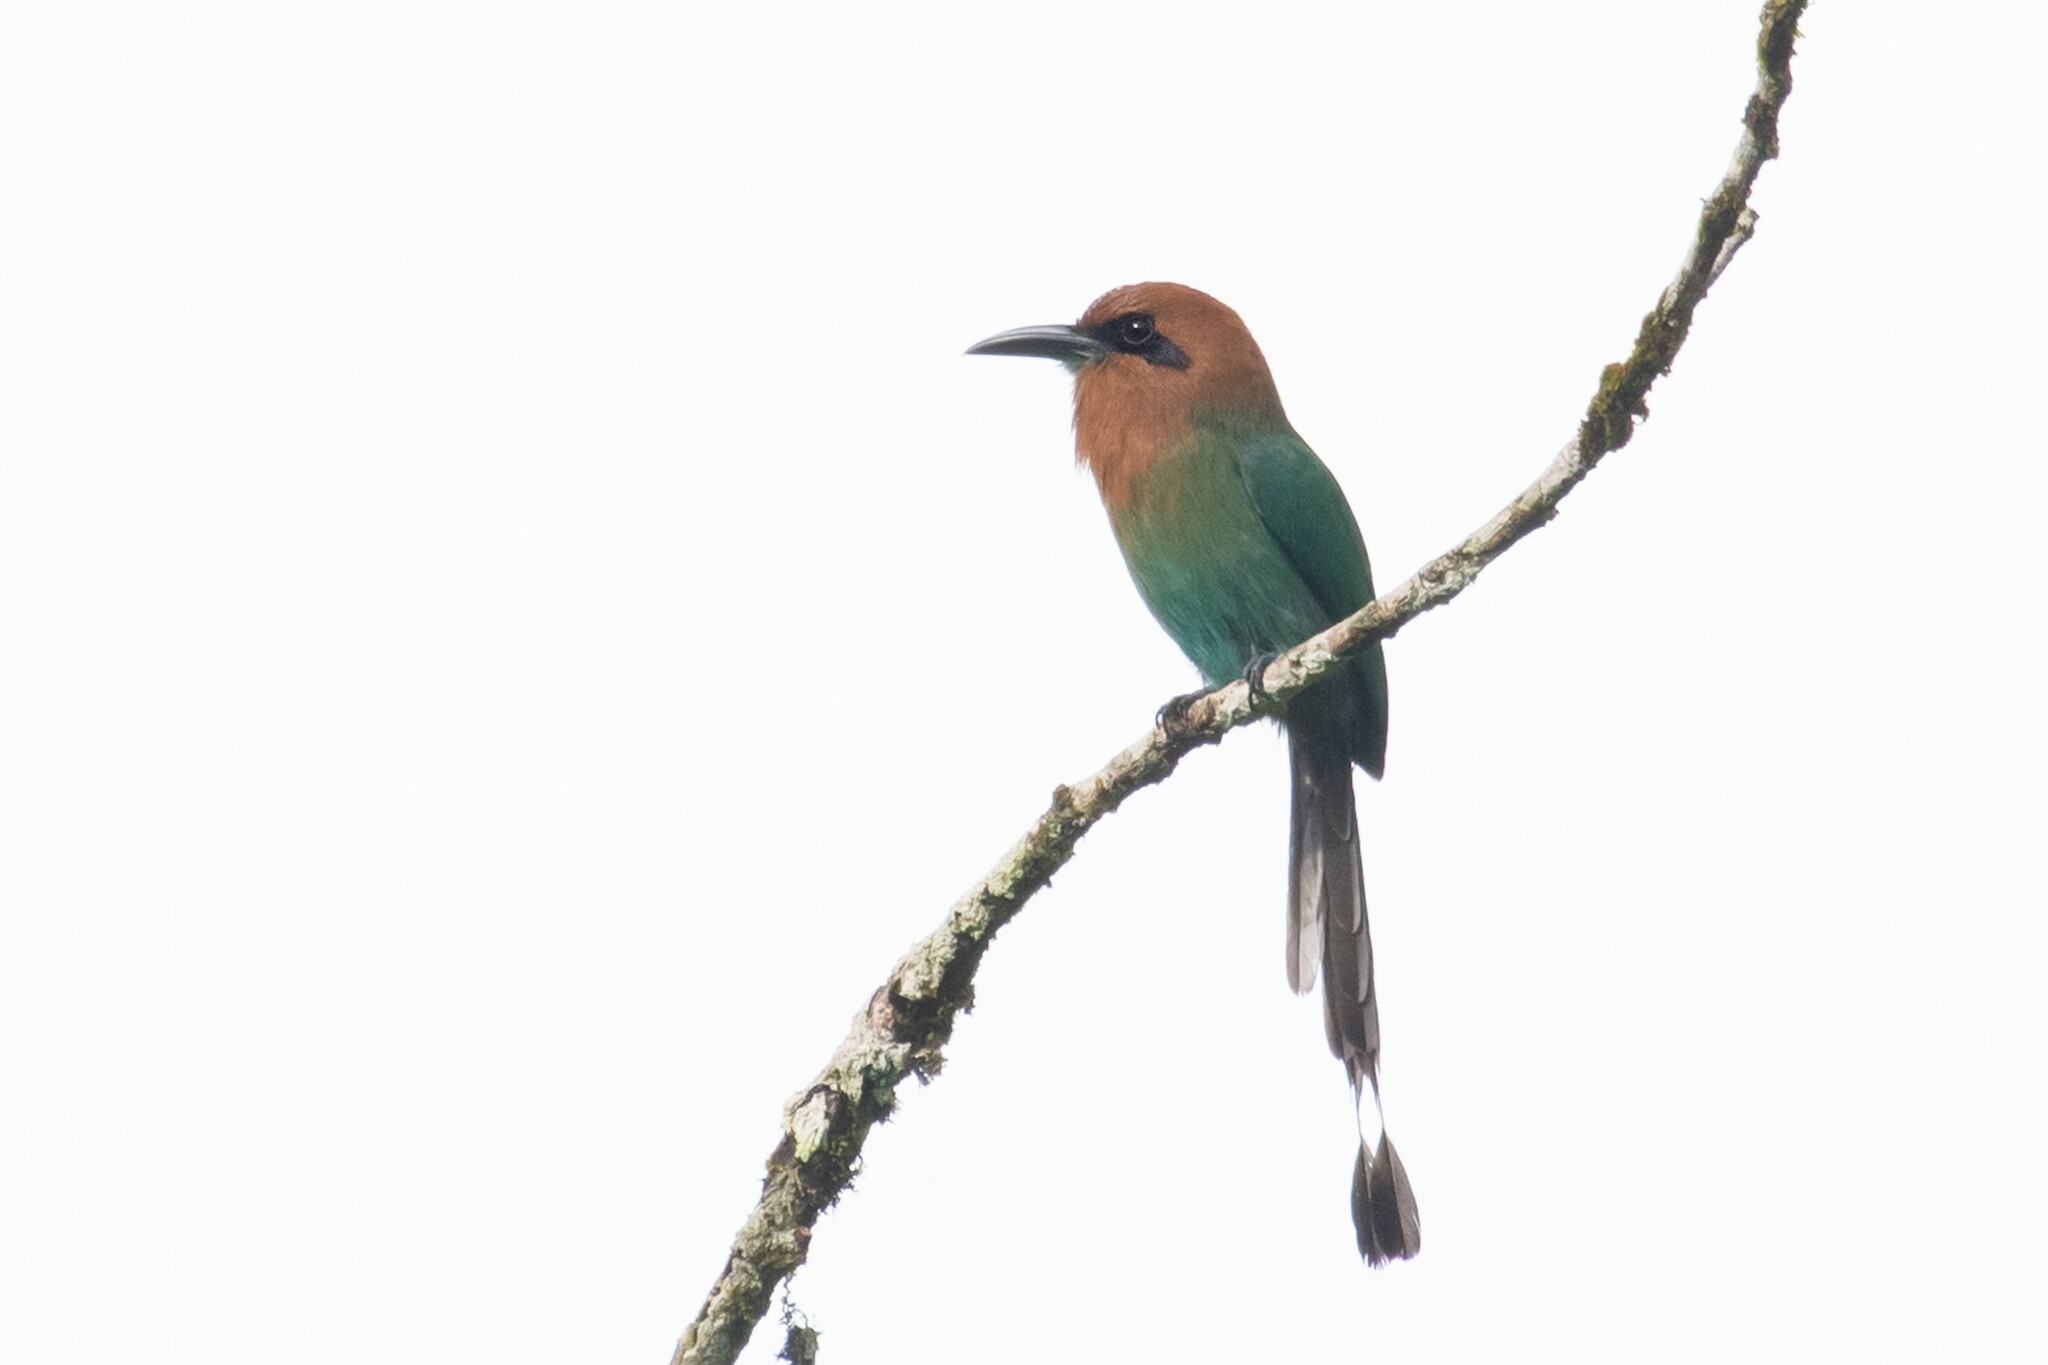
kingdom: Animalia
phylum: Chordata
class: Aves
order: Coraciiformes
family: Momotidae
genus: Electron
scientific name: Electron platyrhynchum
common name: Broad-billed motmot
